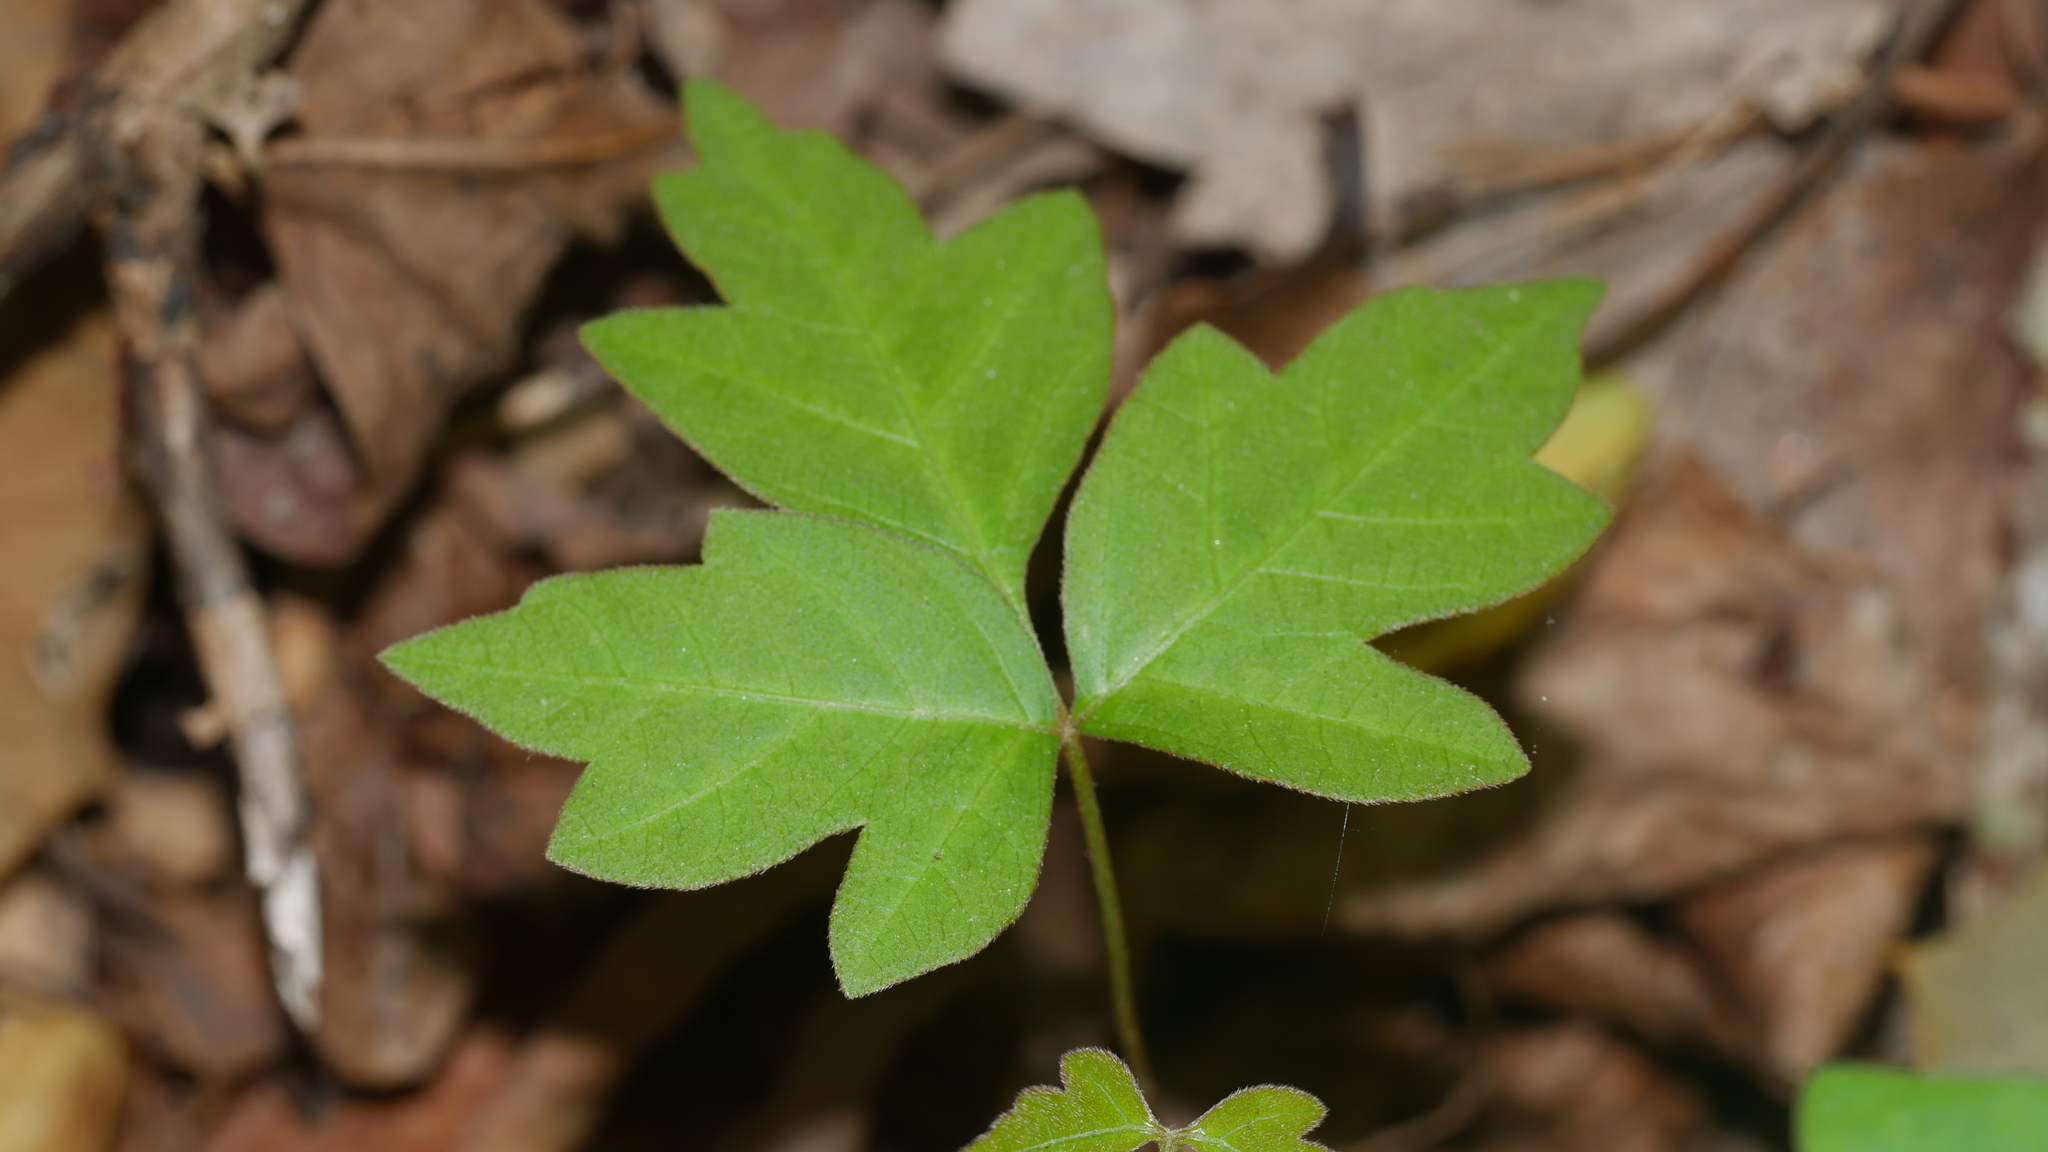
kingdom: Plantae
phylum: Tracheophyta
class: Magnoliopsida
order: Sapindales
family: Anacardiaceae
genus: Toxicodendron
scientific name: Toxicodendron radicans
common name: Poison ivy
